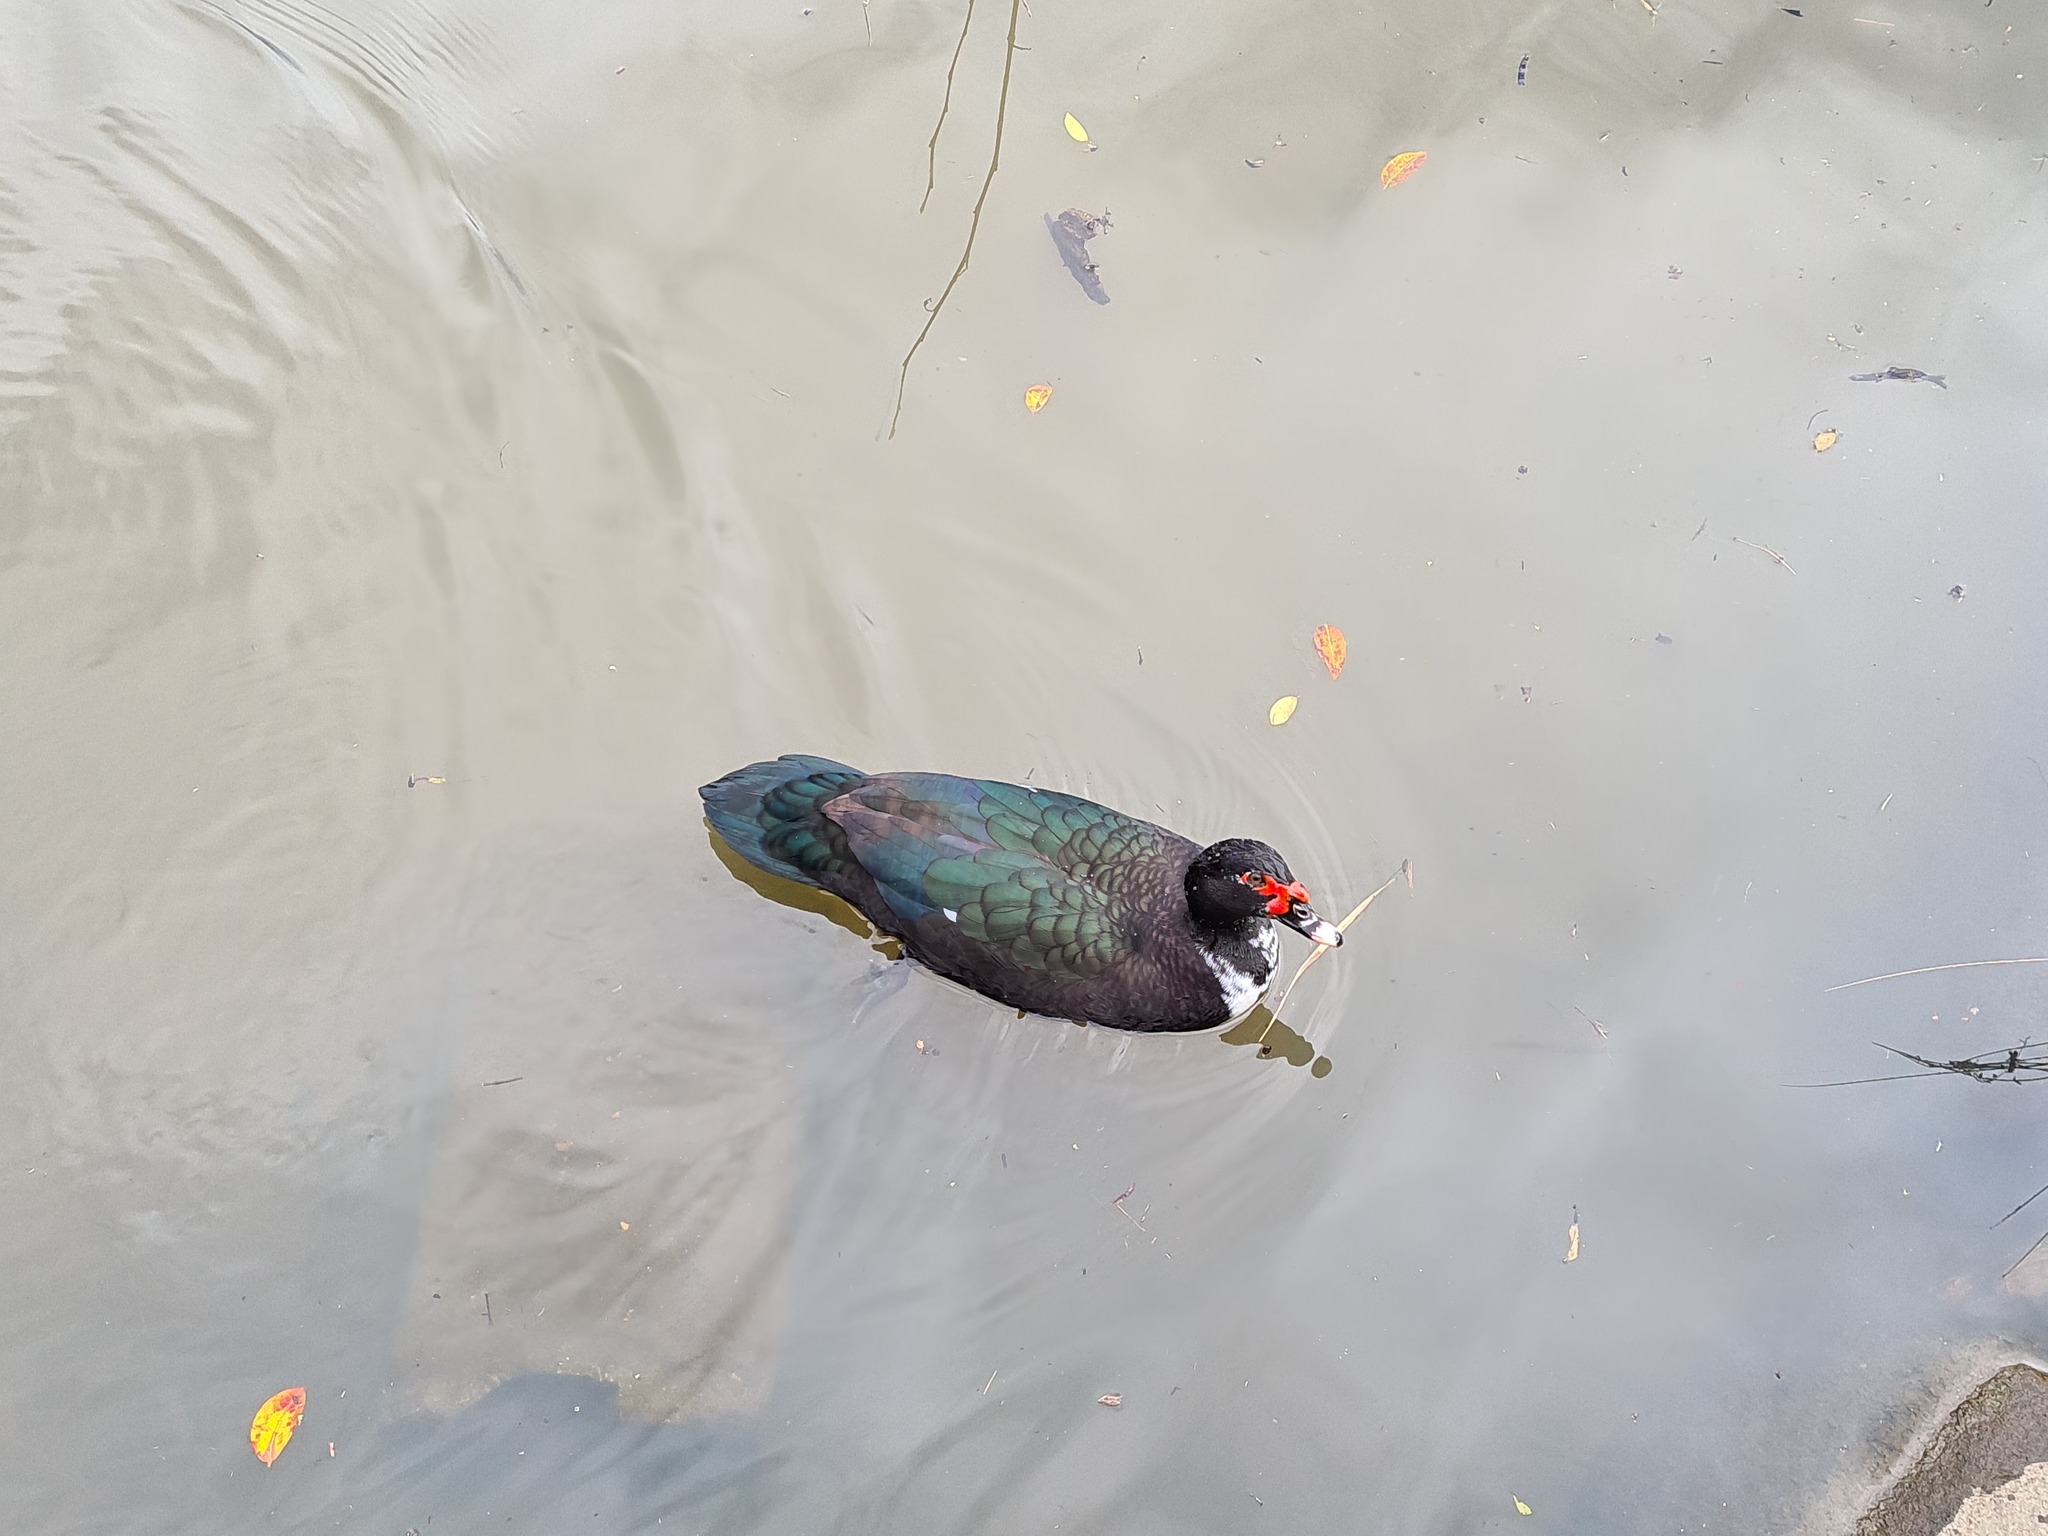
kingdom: Animalia
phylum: Chordata
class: Aves
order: Anseriformes
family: Anatidae
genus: Cairina
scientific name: Cairina moschata
